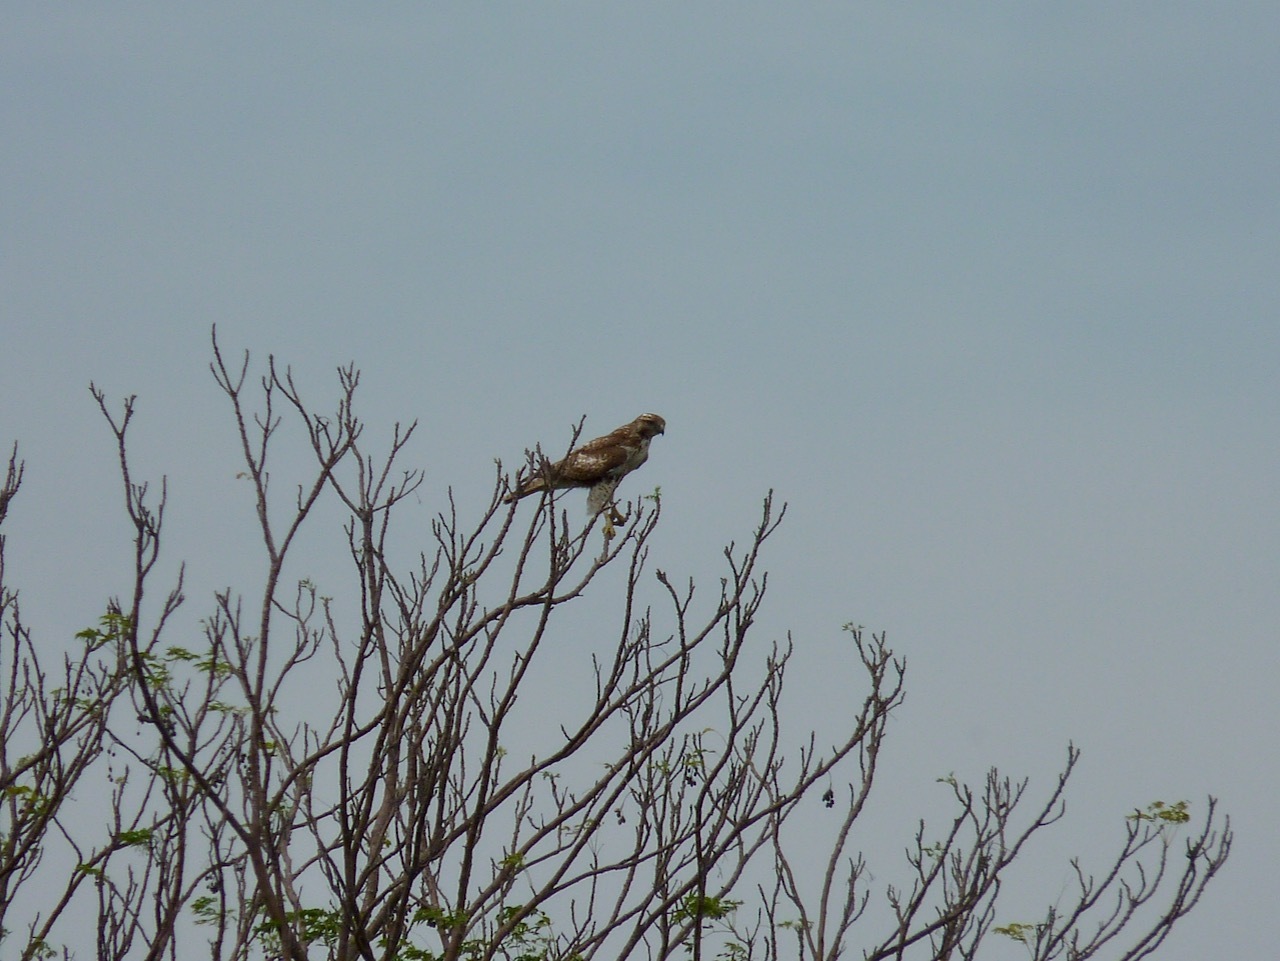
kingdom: Animalia
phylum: Chordata
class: Aves
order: Accipitriformes
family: Accipitridae
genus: Buteo
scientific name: Buteo jamaicensis
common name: Red-tailed hawk
